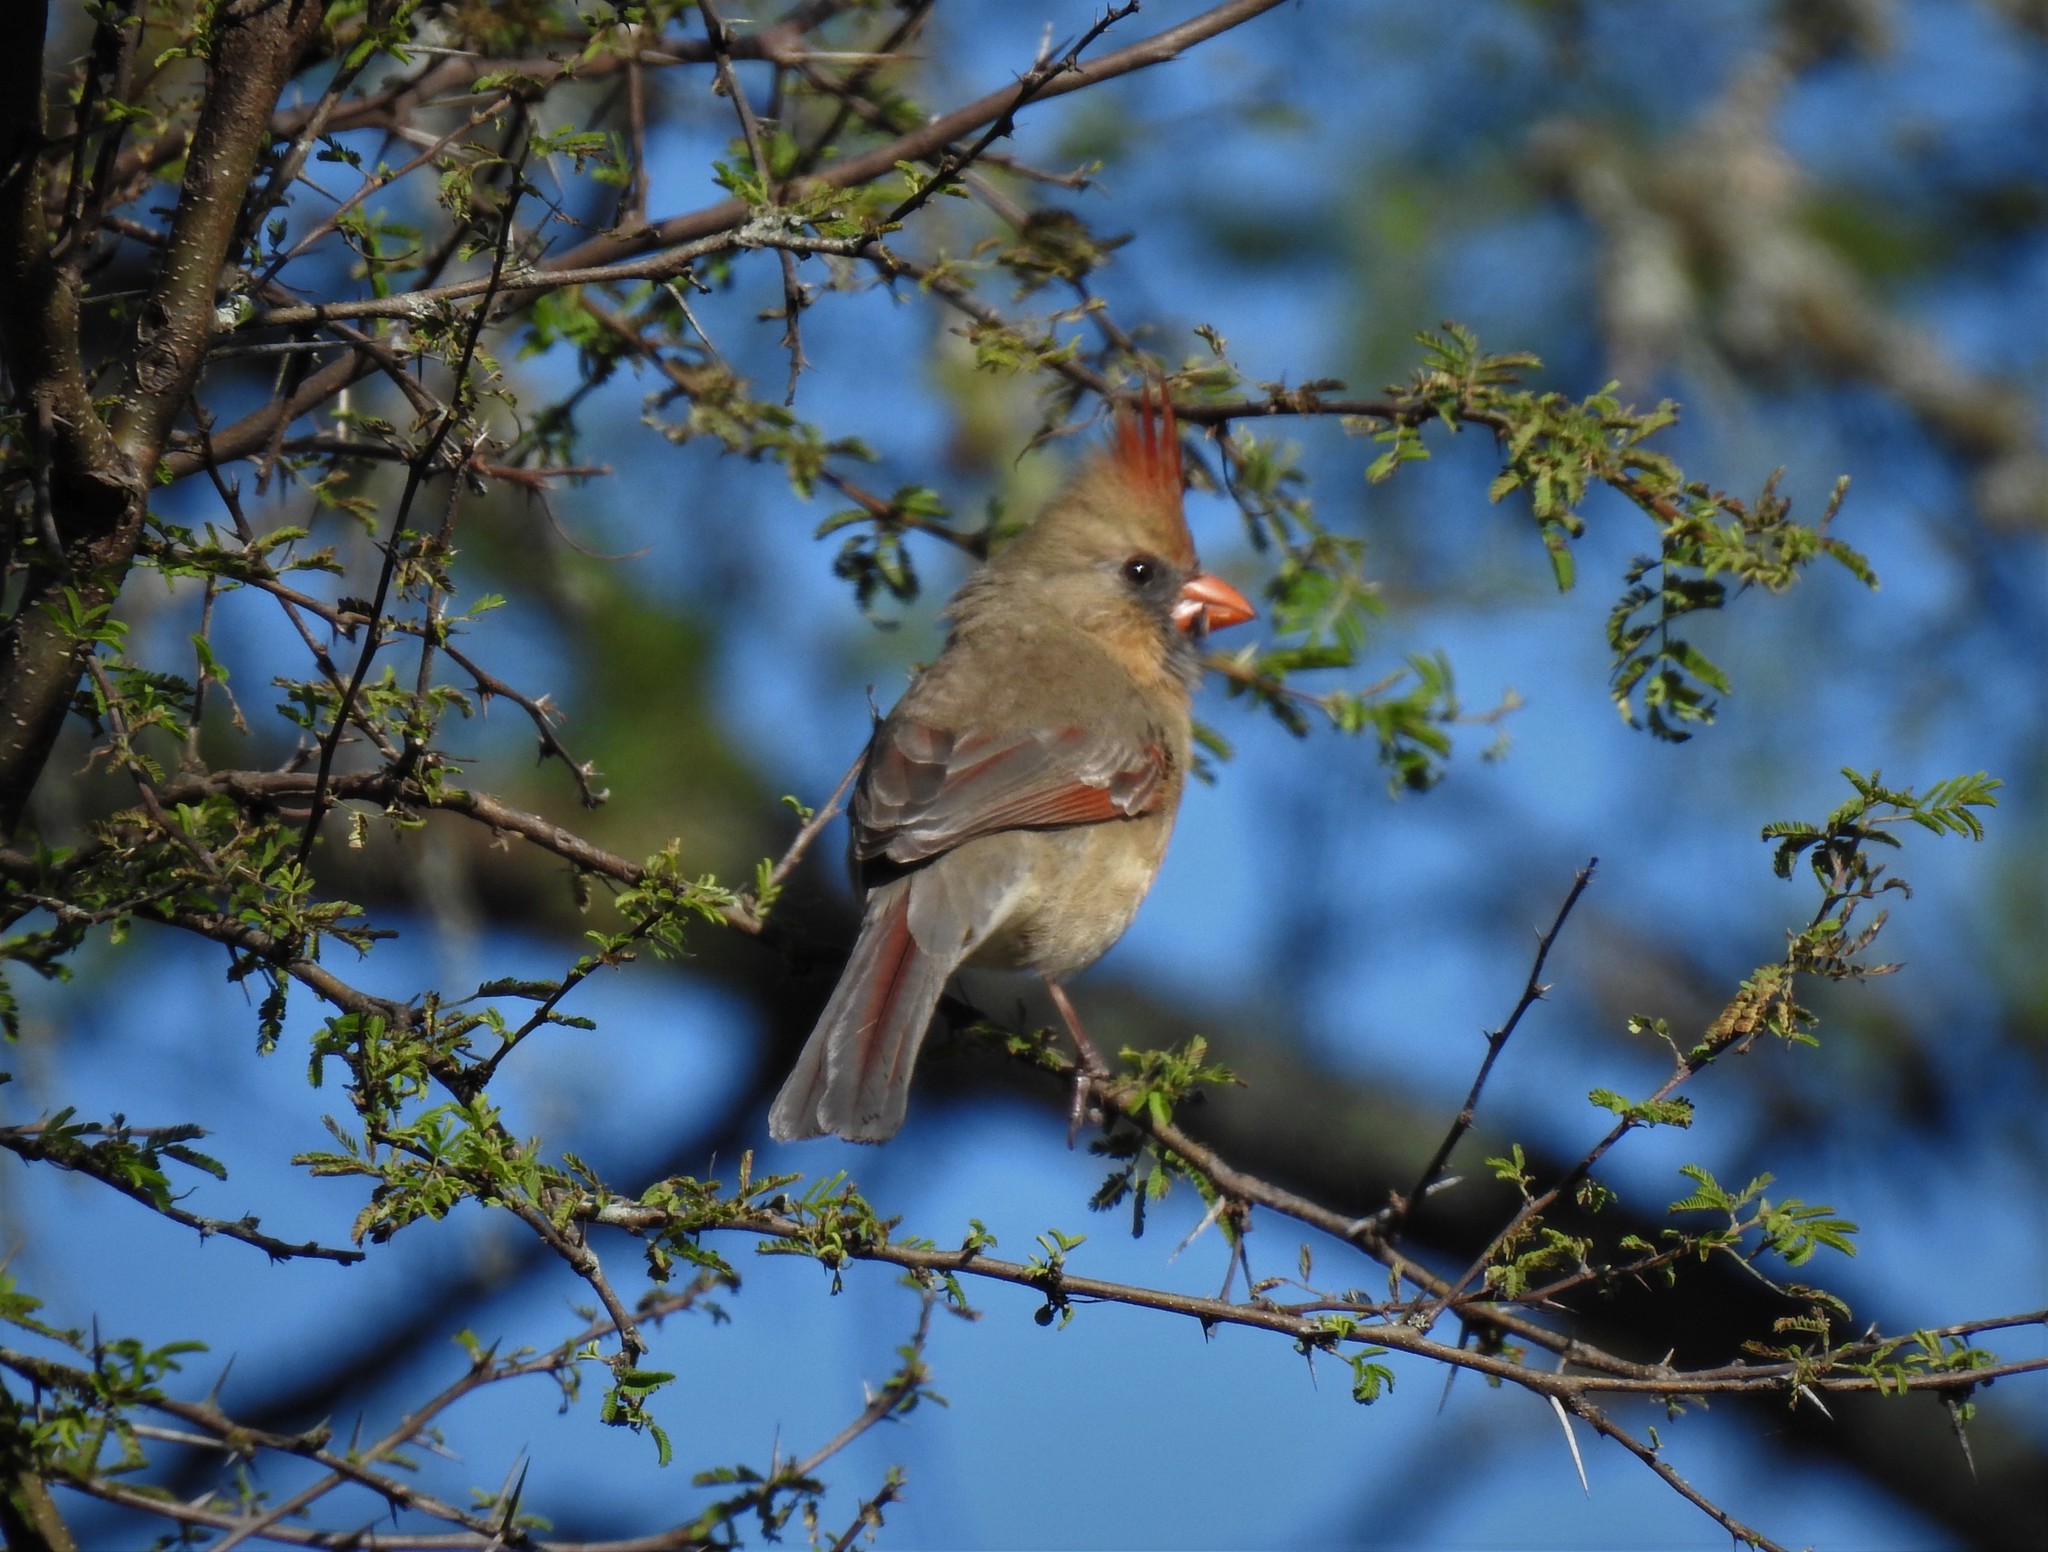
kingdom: Animalia
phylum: Chordata
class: Aves
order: Passeriformes
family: Cardinalidae
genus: Cardinalis
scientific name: Cardinalis cardinalis
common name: Northern cardinal
